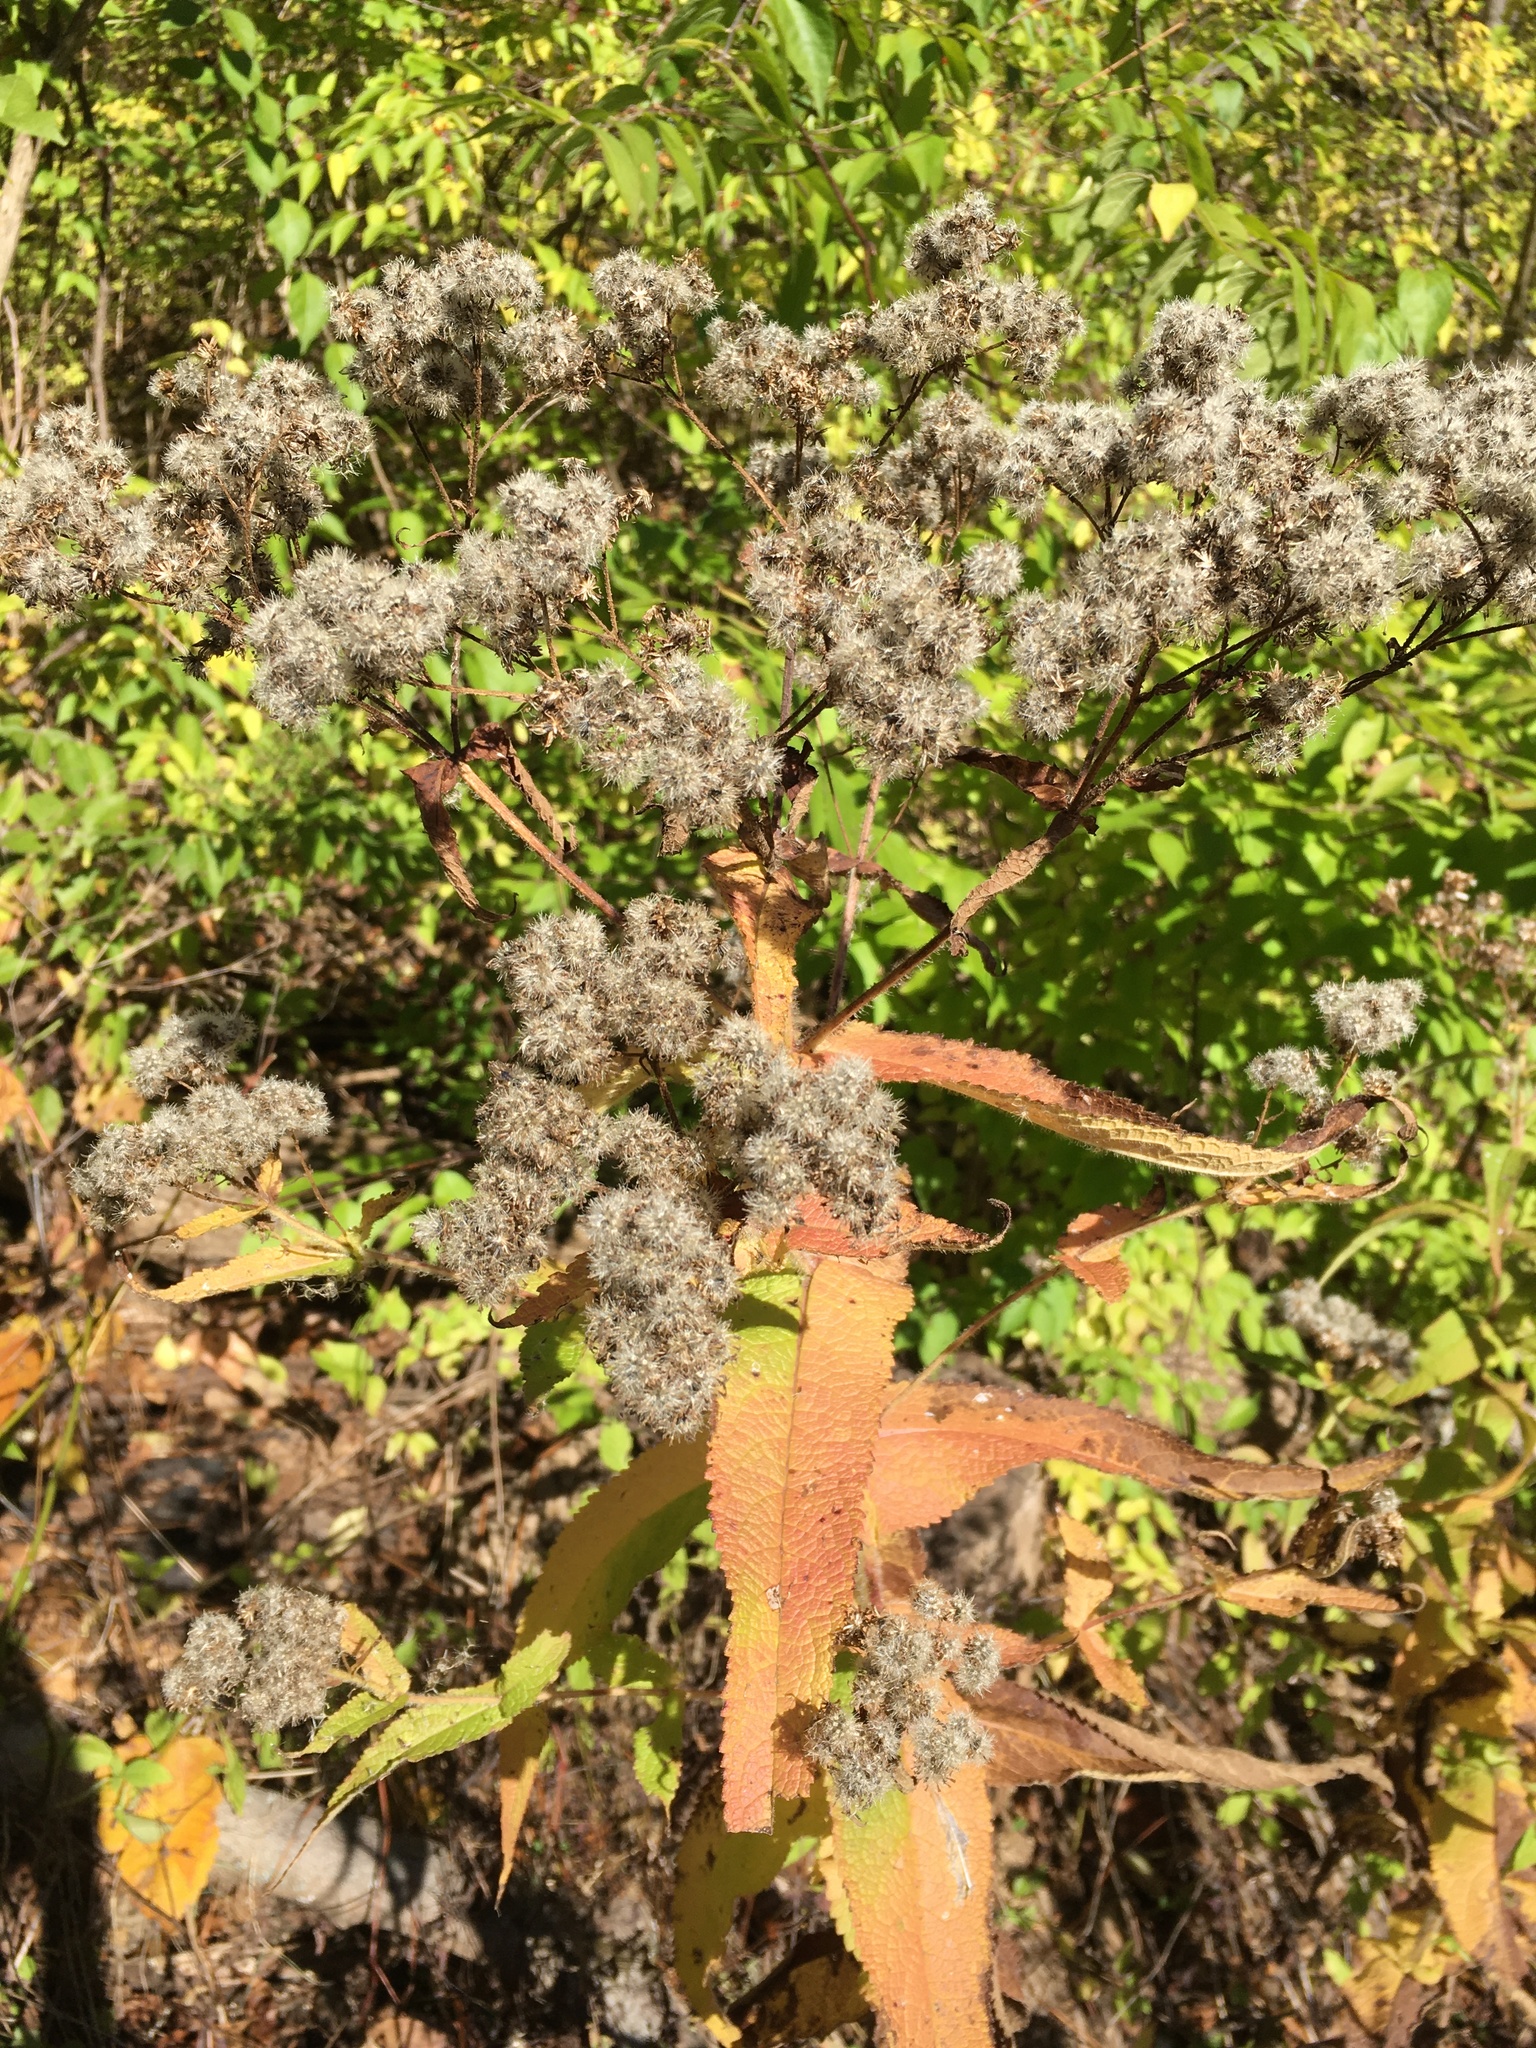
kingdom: Plantae
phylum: Tracheophyta
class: Magnoliopsida
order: Asterales
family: Asteraceae
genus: Eupatorium
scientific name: Eupatorium perfoliatum
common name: Boneset
